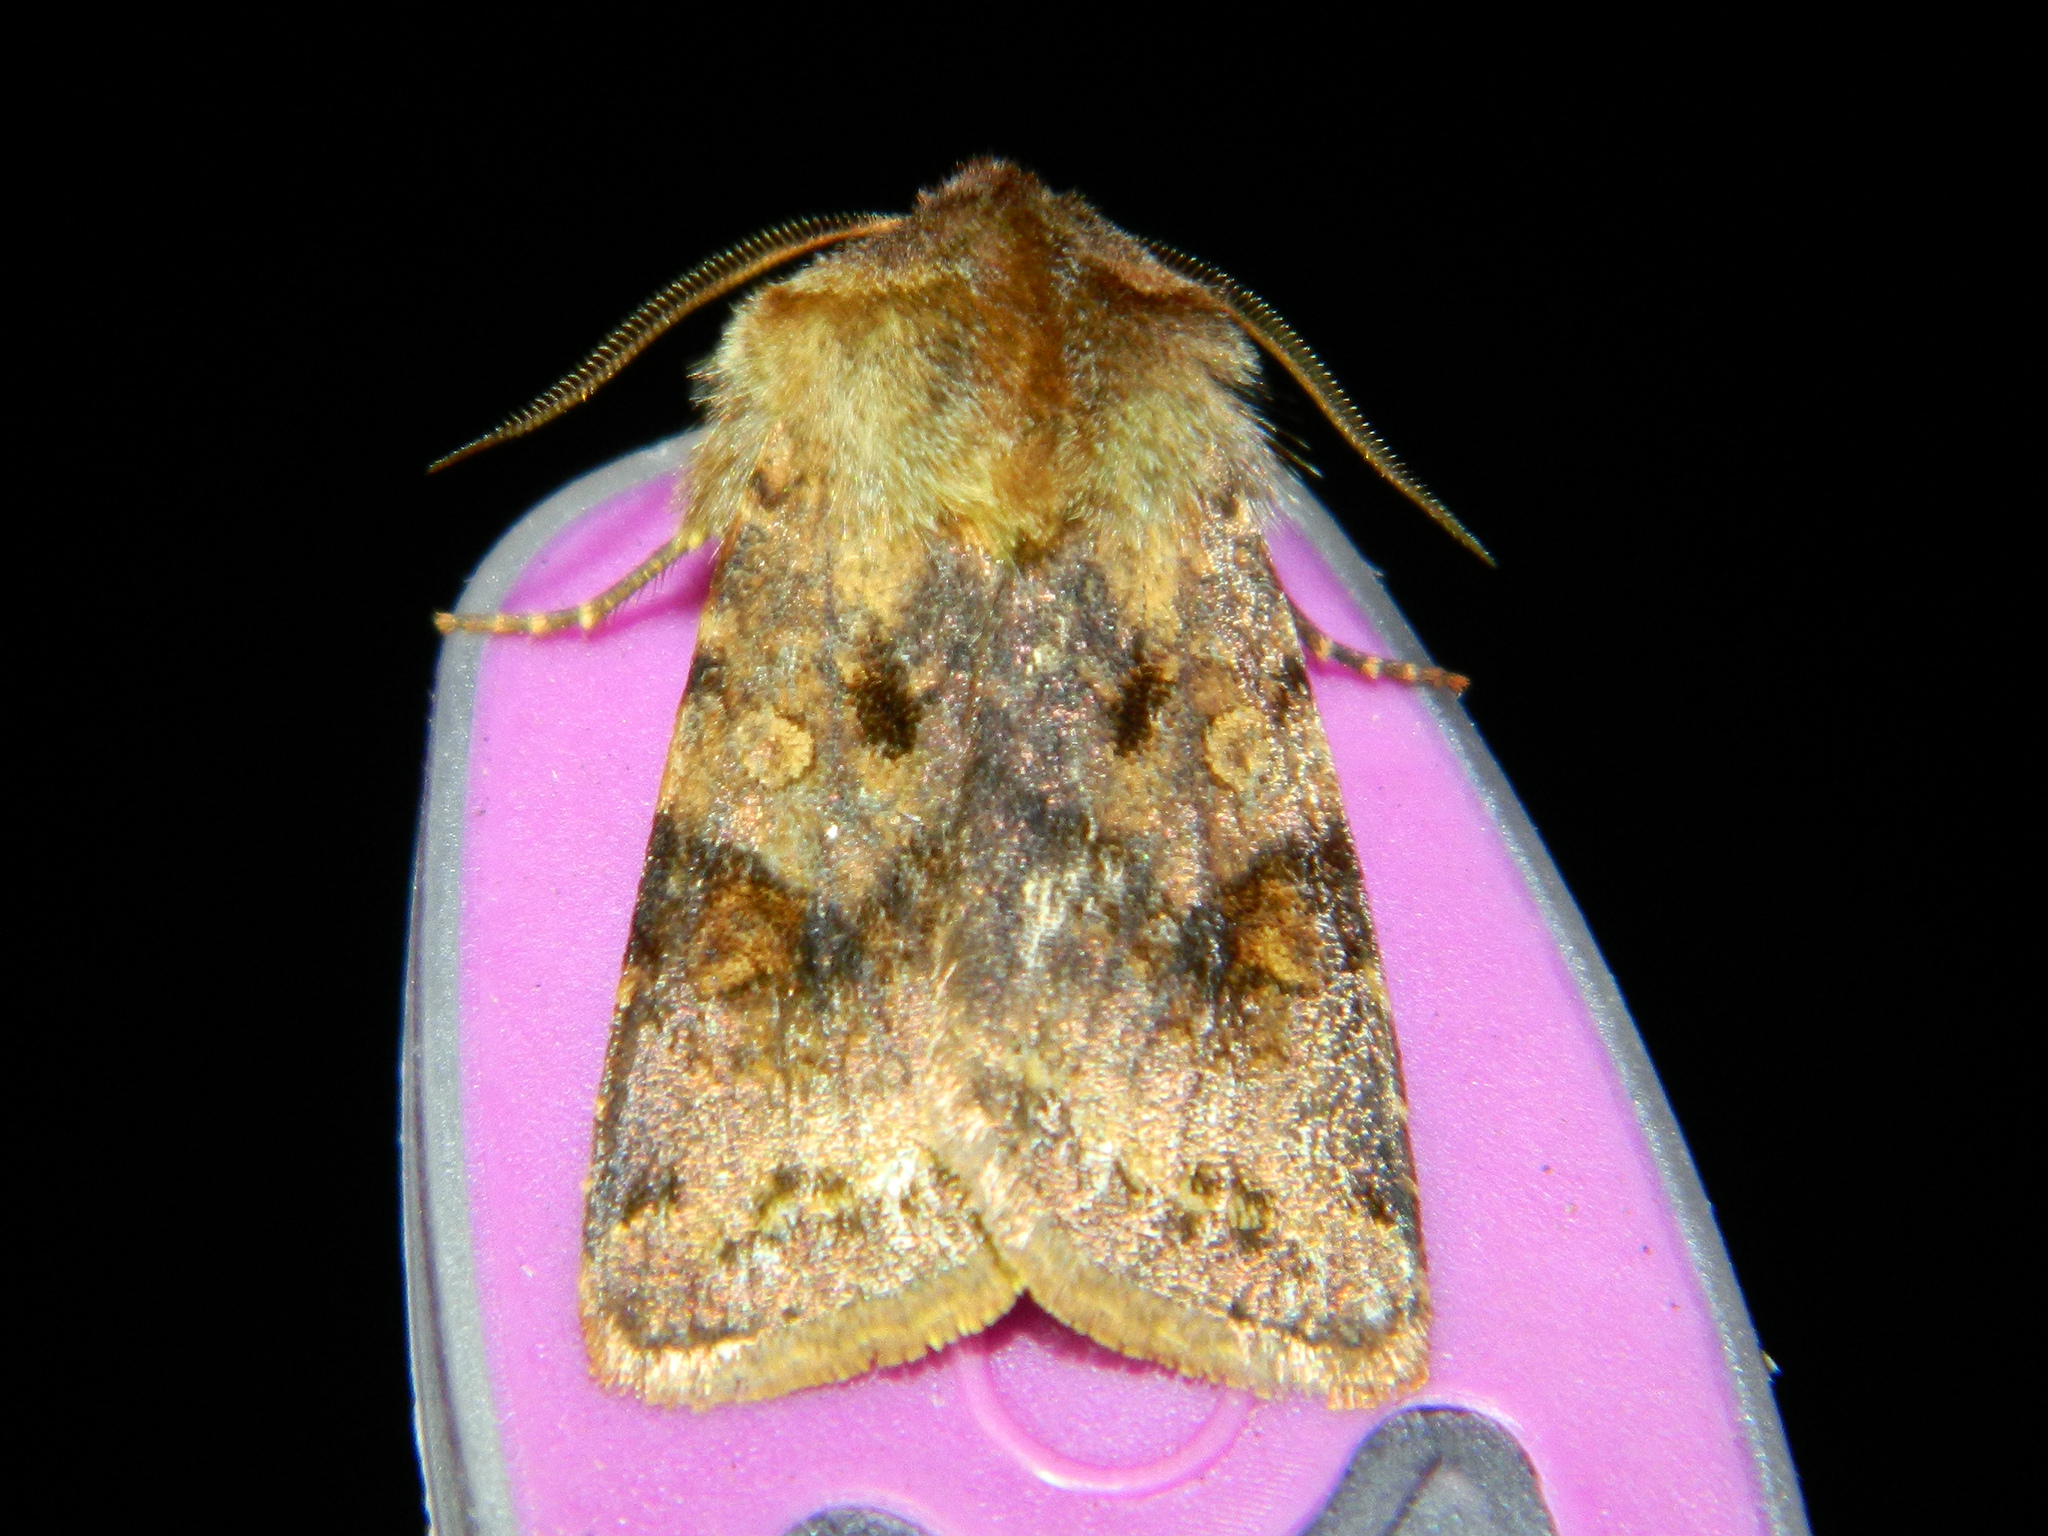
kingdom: Animalia
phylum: Arthropoda
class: Insecta
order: Lepidoptera
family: Noctuidae
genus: Cerastis
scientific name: Cerastis salicarum
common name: Willow dart
